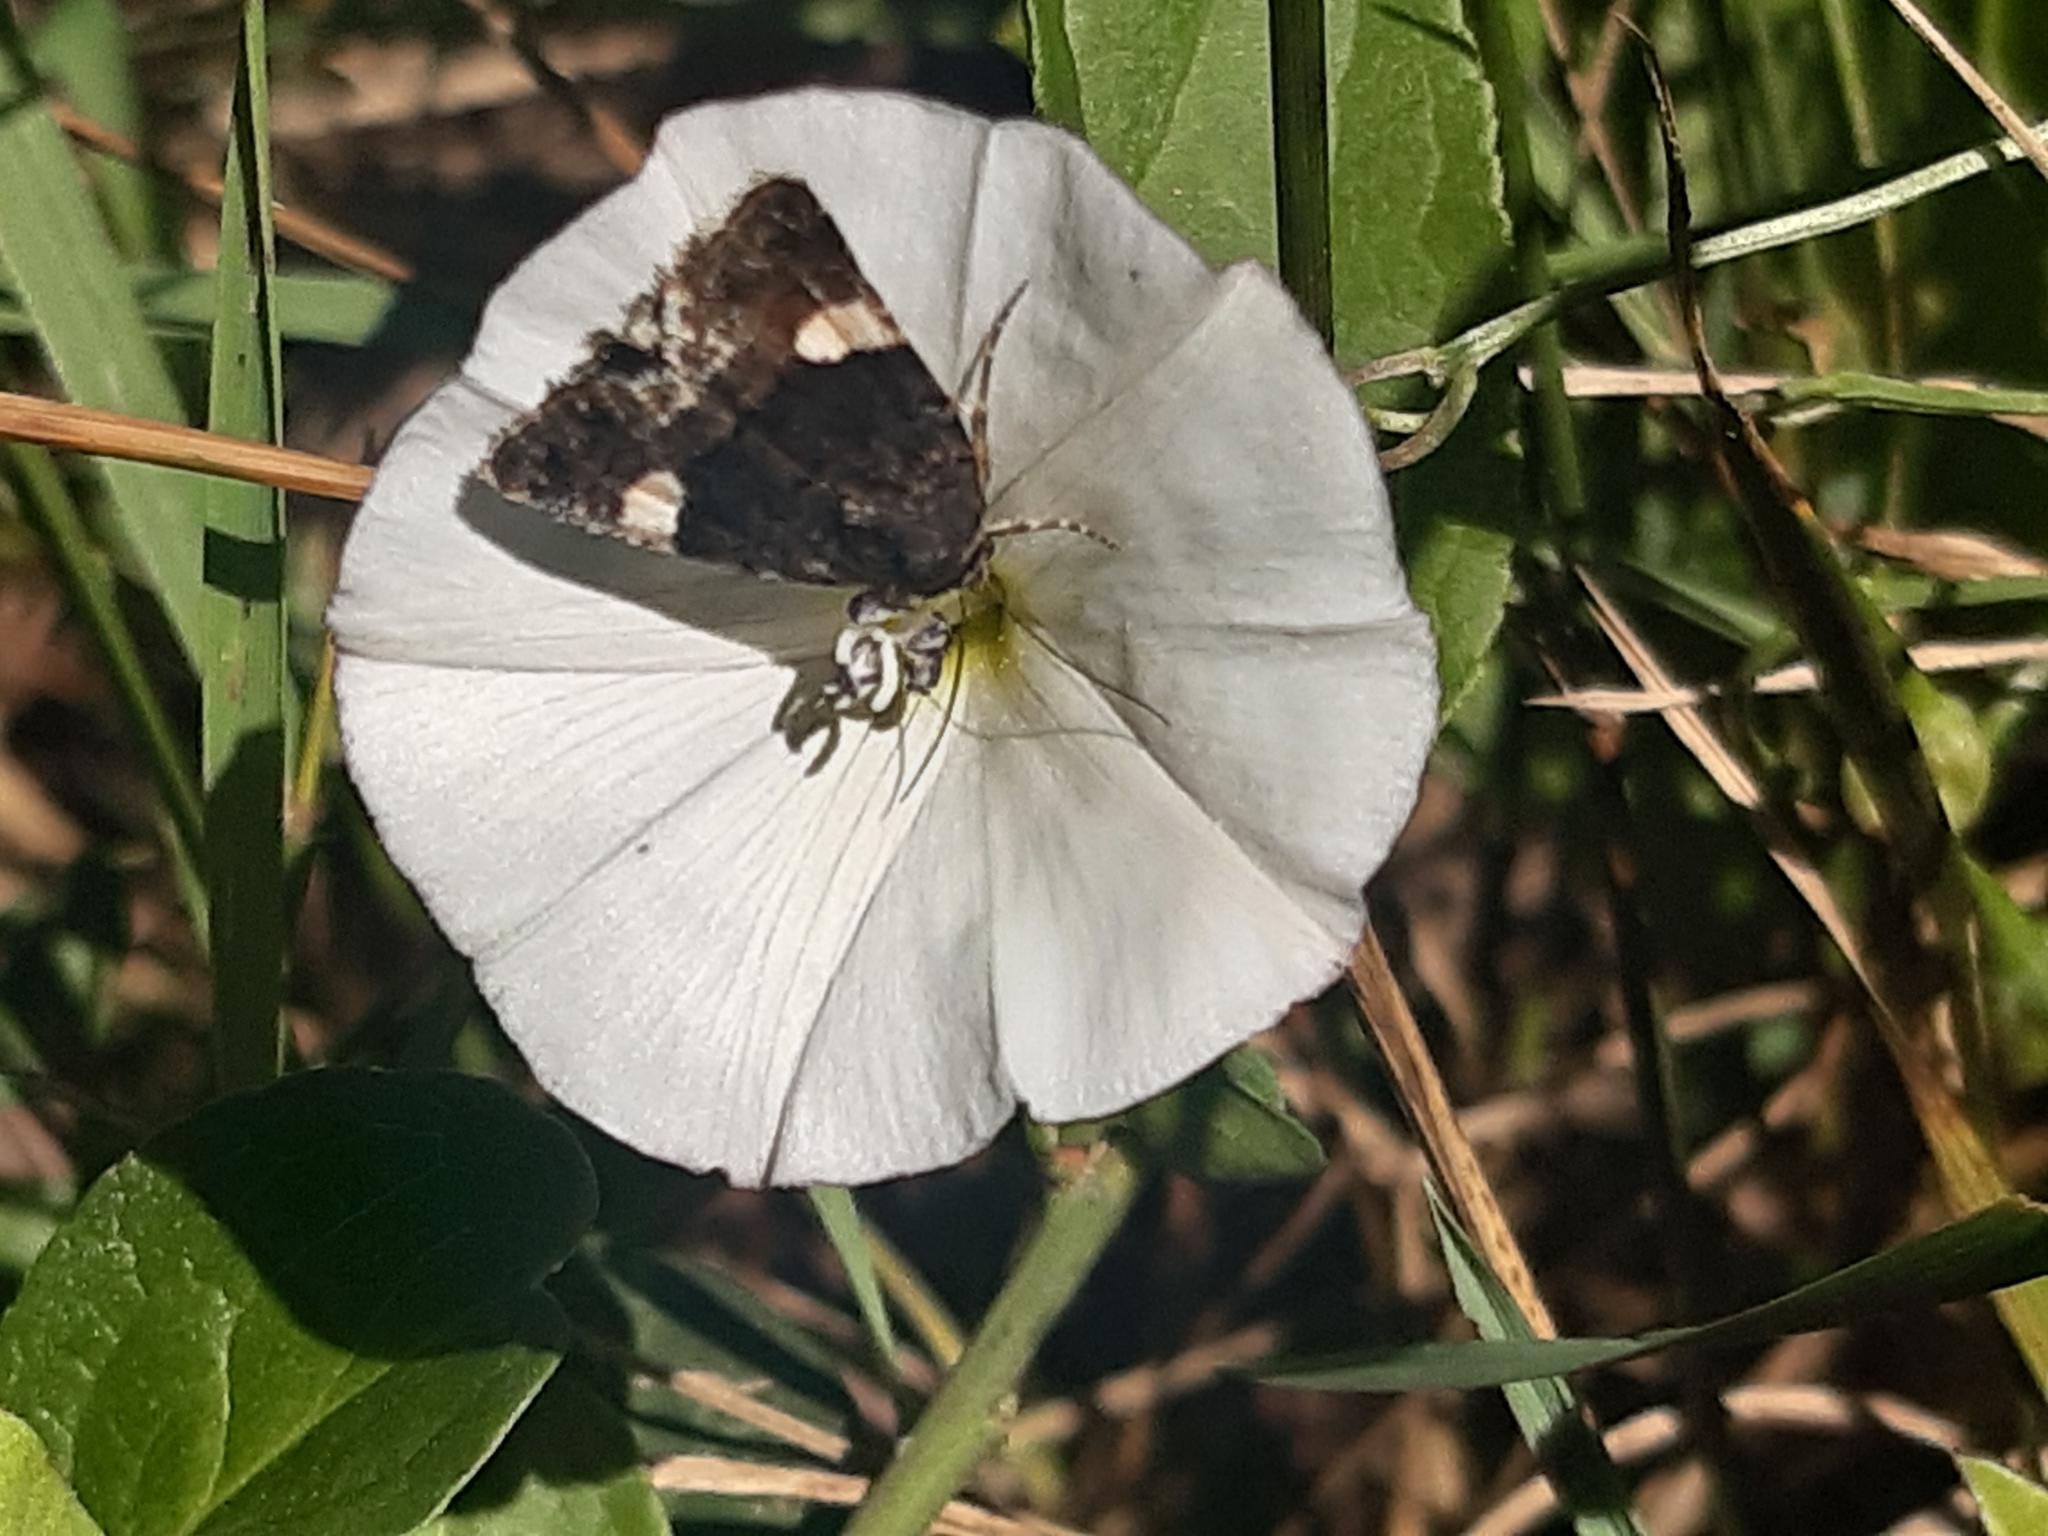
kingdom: Animalia
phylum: Arthropoda
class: Insecta
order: Lepidoptera
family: Erebidae
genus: Tyta
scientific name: Tyta luctuosa
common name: Four-spotted
